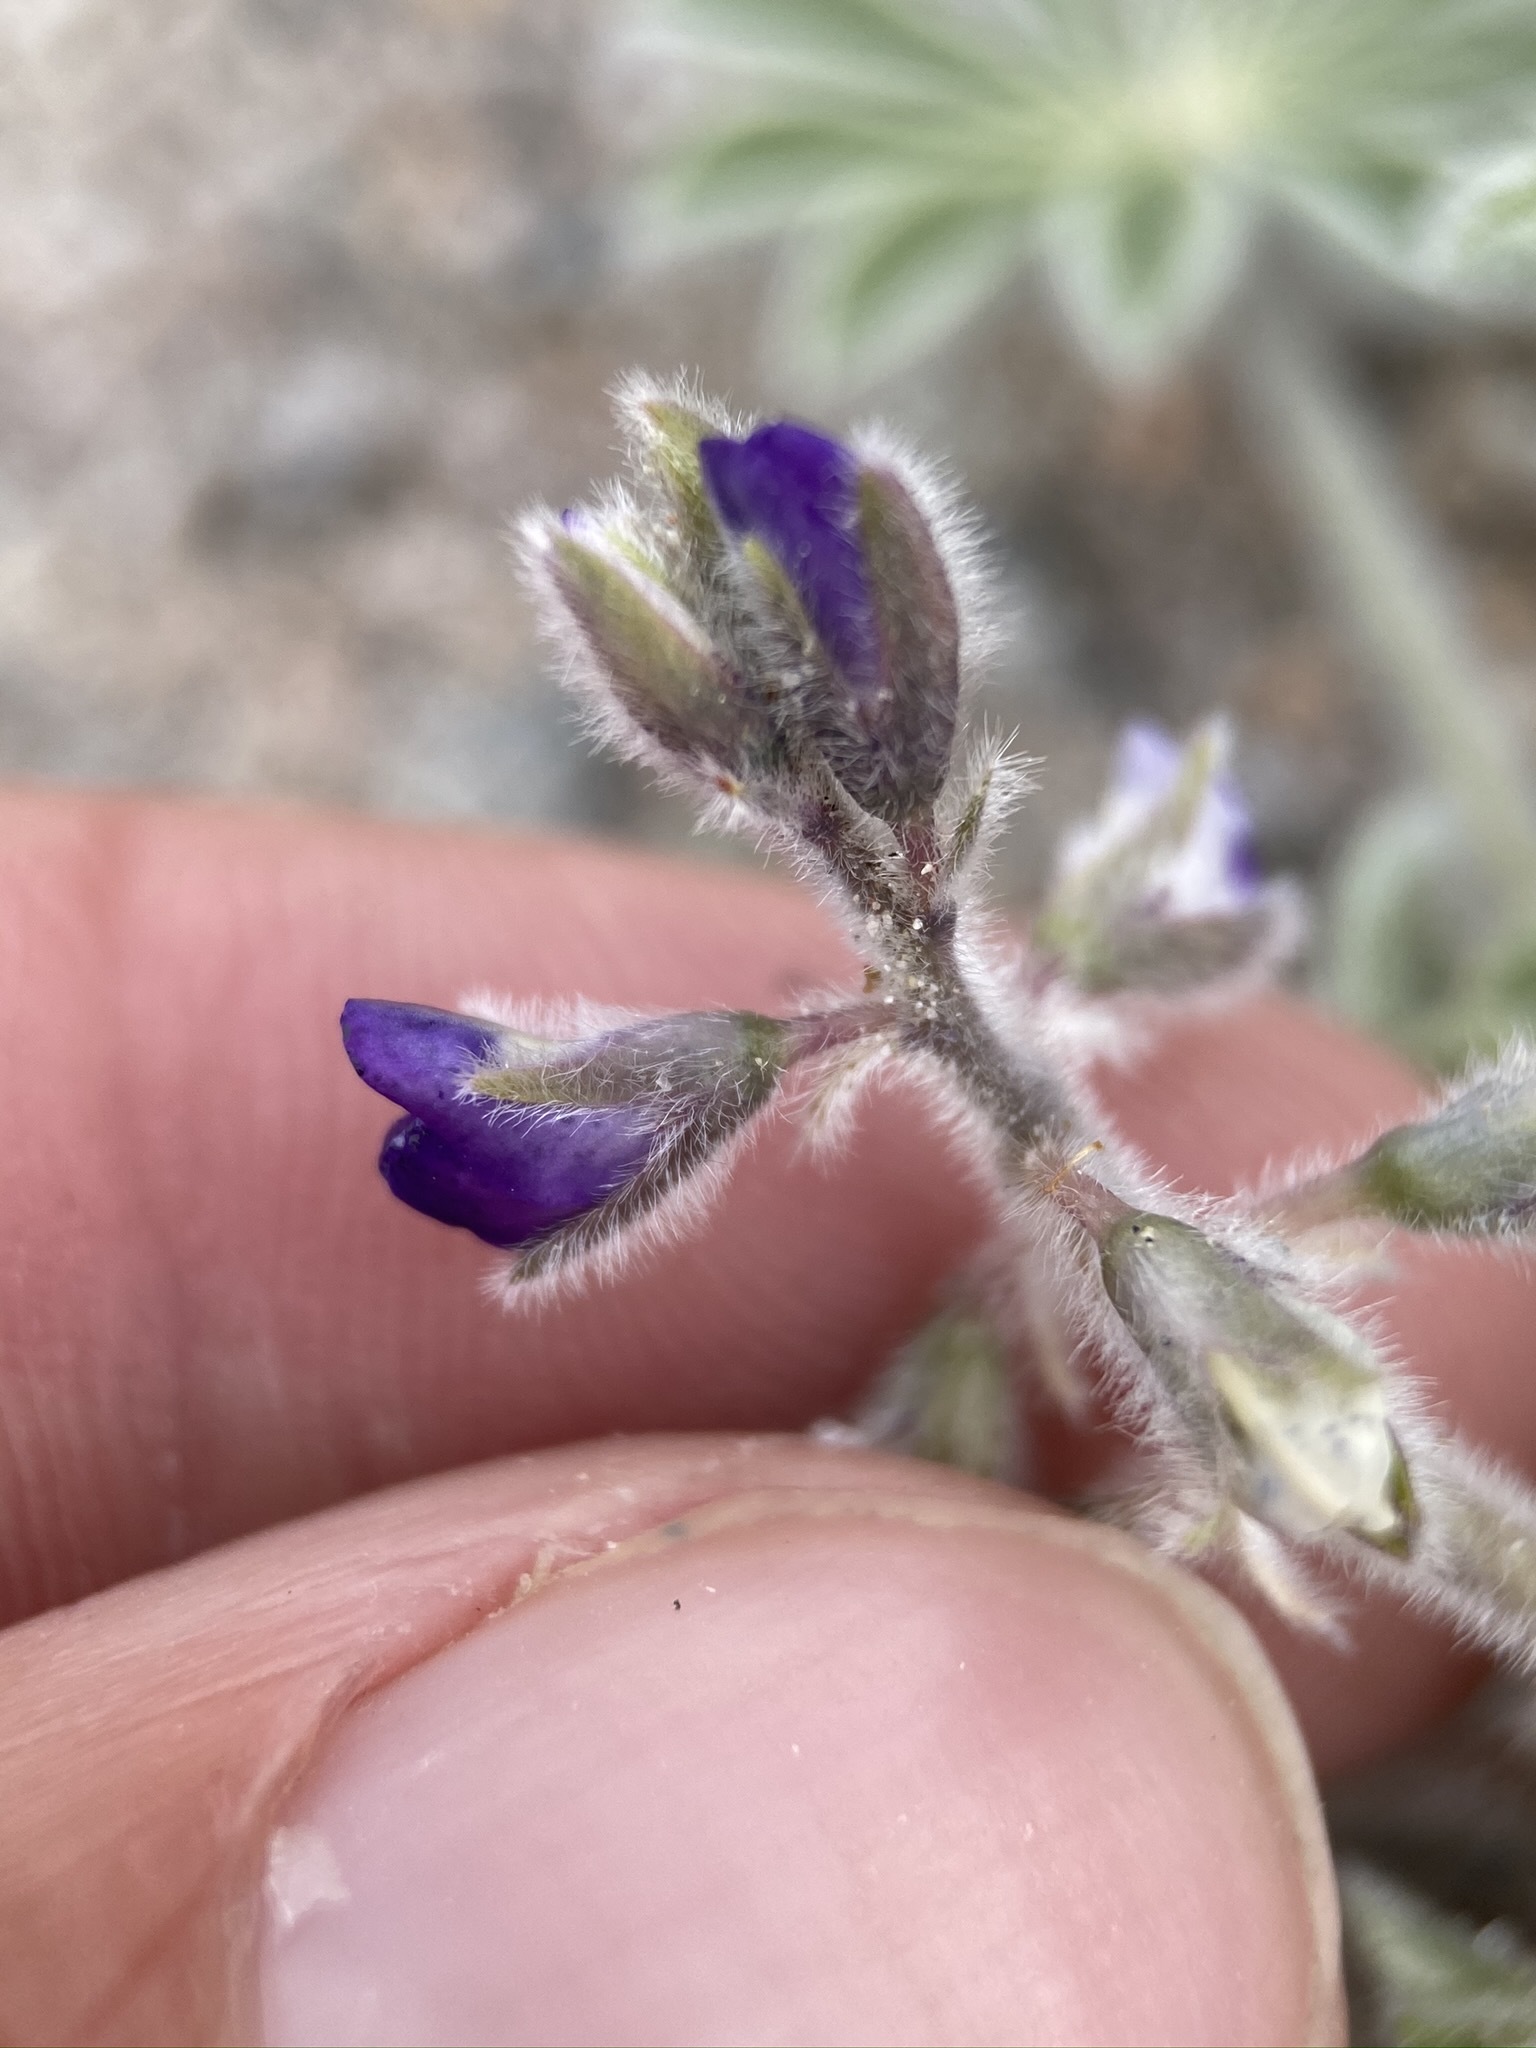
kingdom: Plantae
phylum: Tracheophyta
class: Magnoliopsida
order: Fabales
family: Fabaceae
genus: Lupinus
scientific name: Lupinus shockleyi
